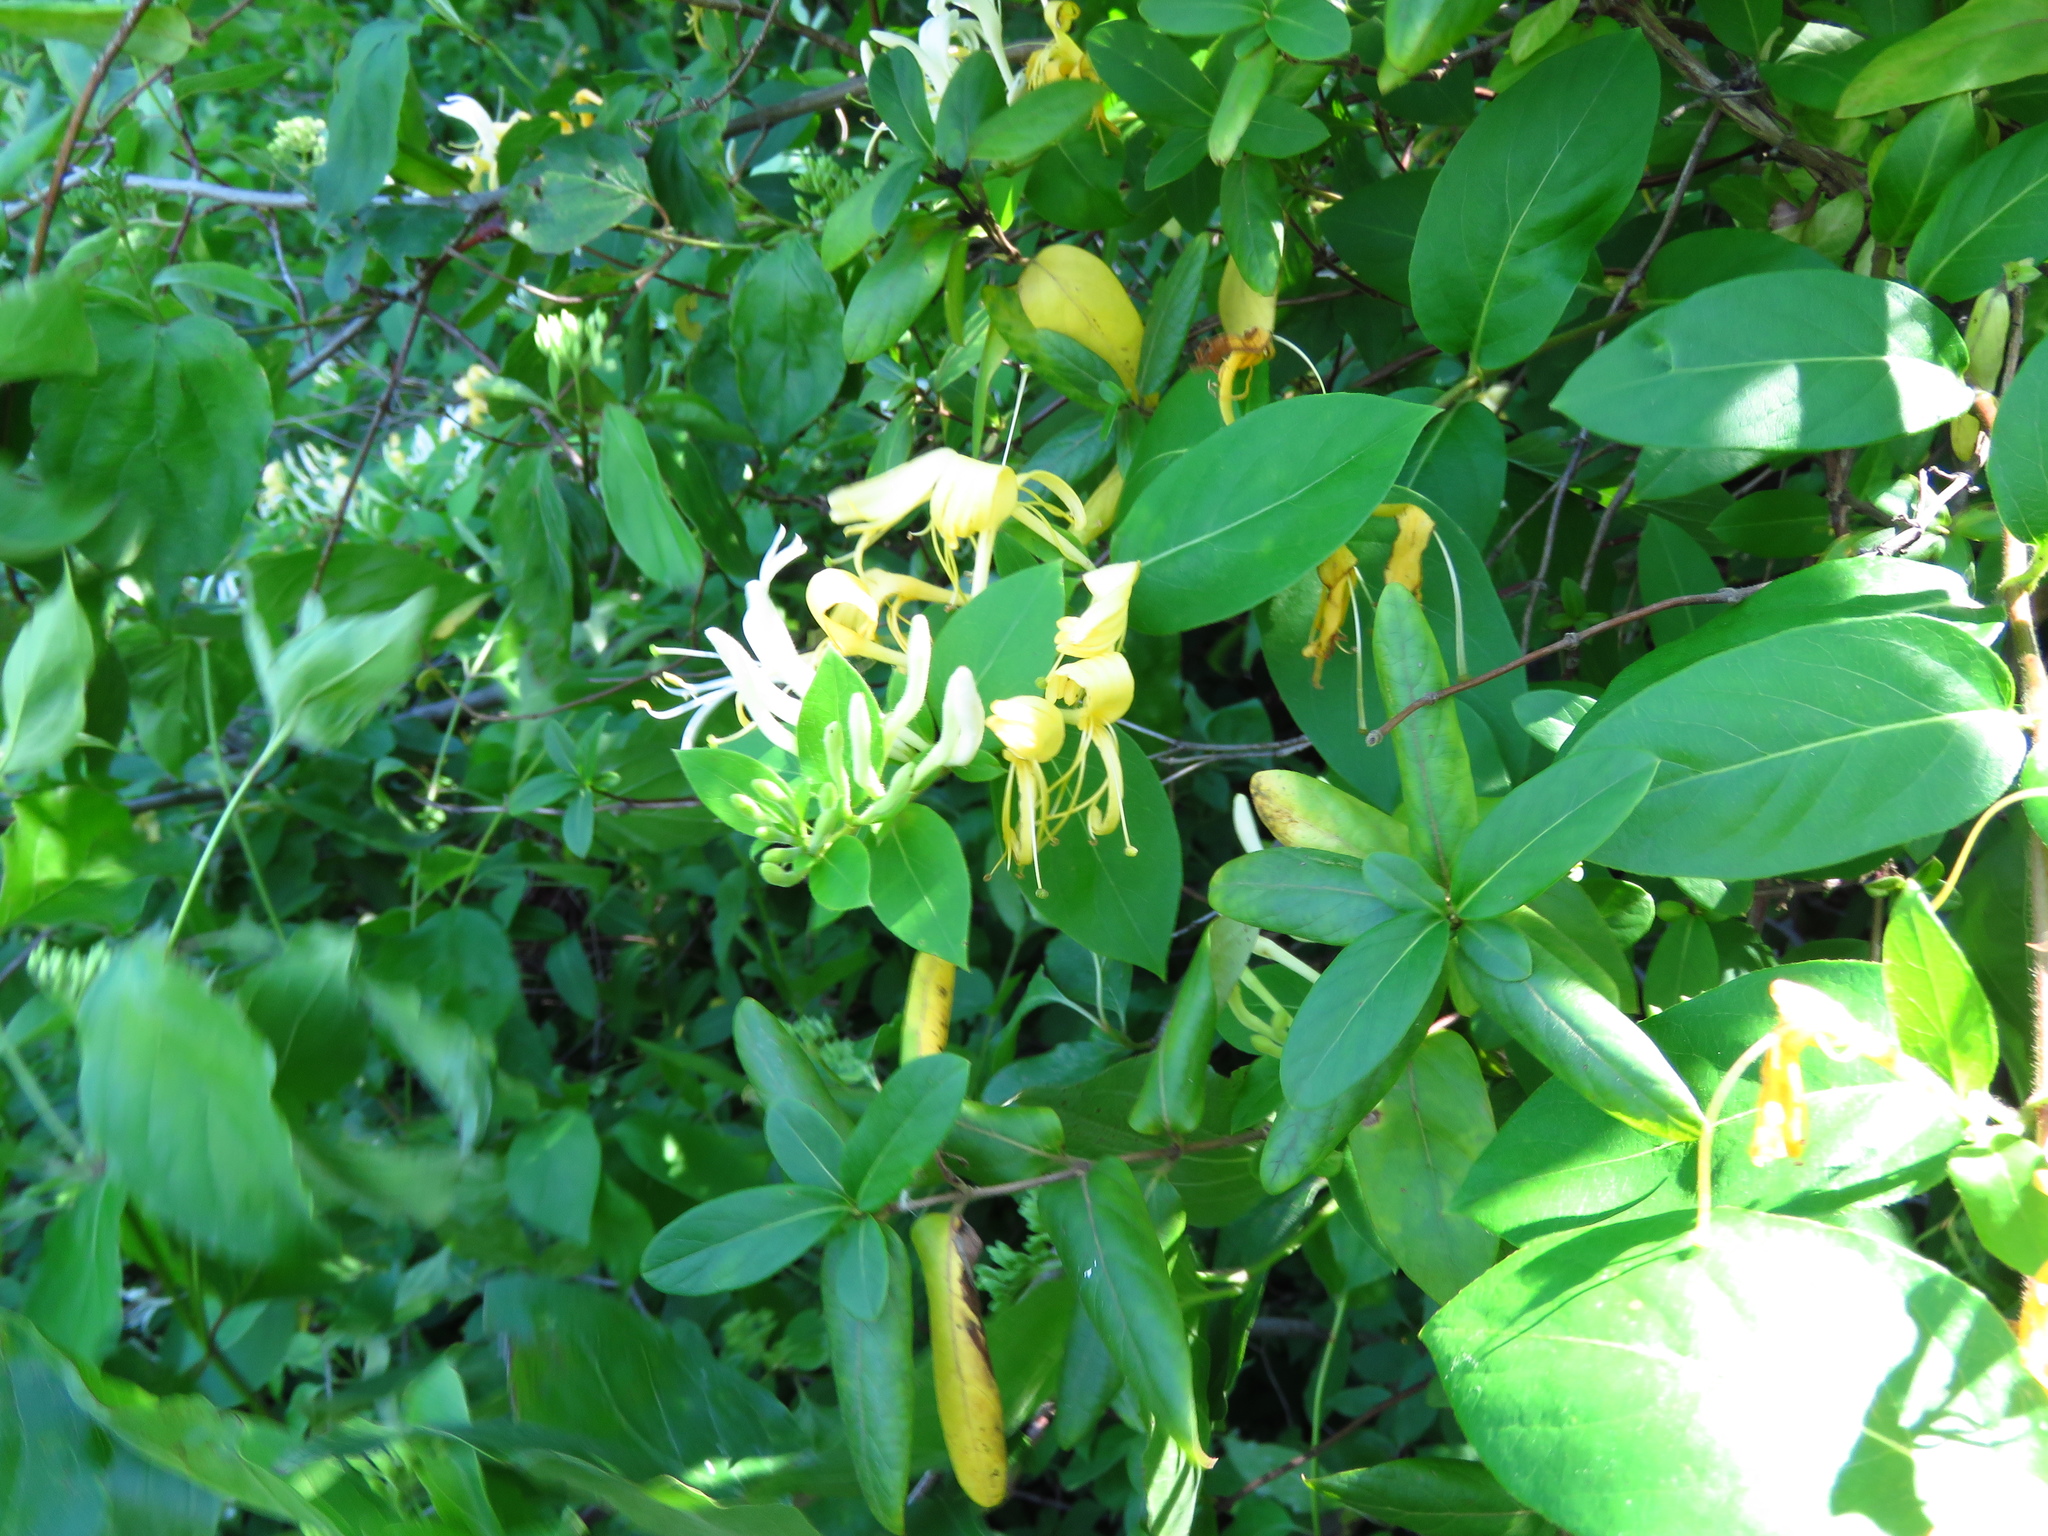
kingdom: Plantae
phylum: Tracheophyta
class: Magnoliopsida
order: Dipsacales
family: Caprifoliaceae
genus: Lonicera
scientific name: Lonicera japonica
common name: Japanese honeysuckle
